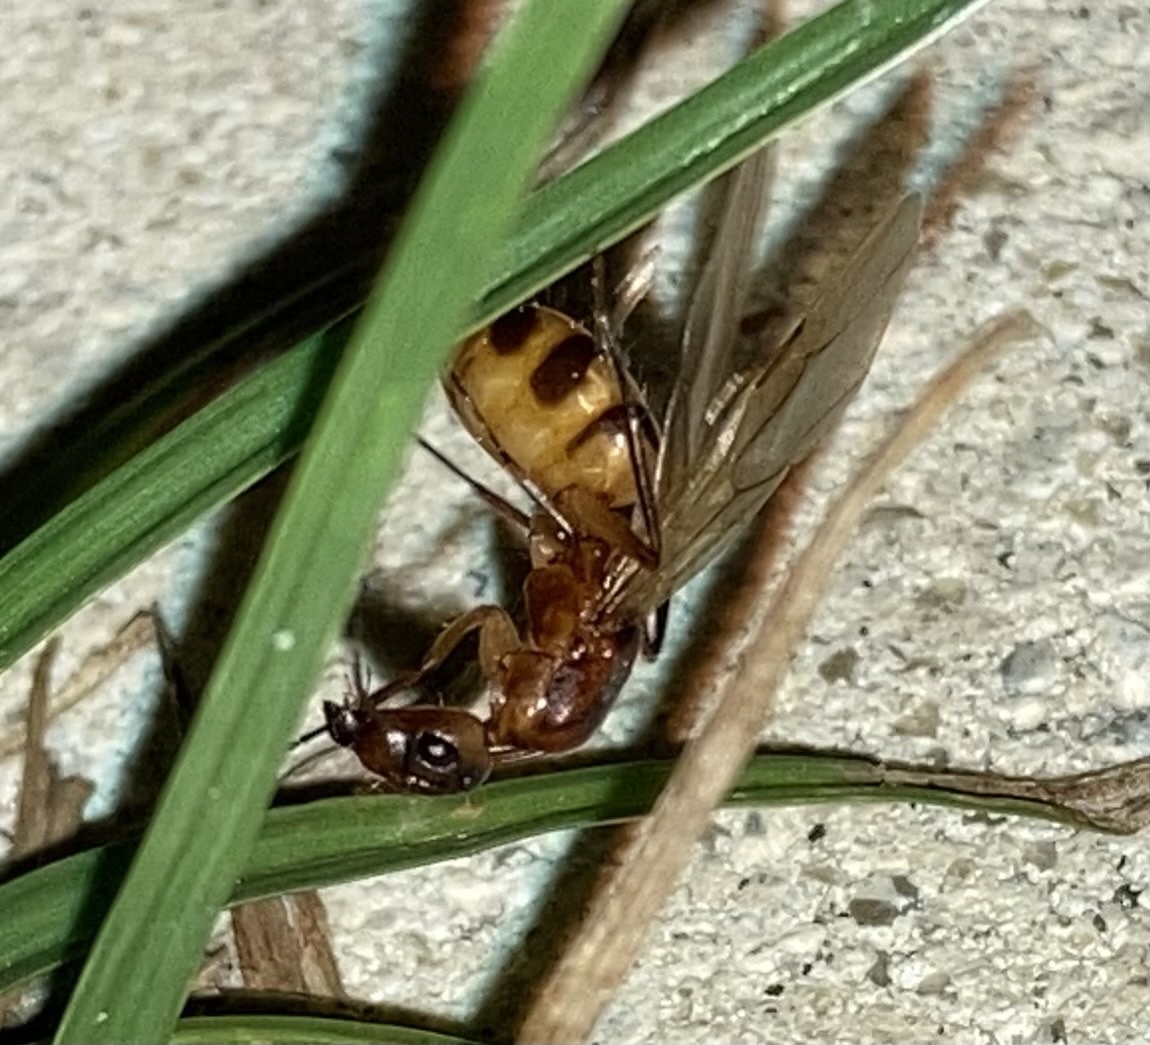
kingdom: Animalia
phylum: Arthropoda
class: Insecta
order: Hymenoptera
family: Formicidae
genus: Camponotus
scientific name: Camponotus
